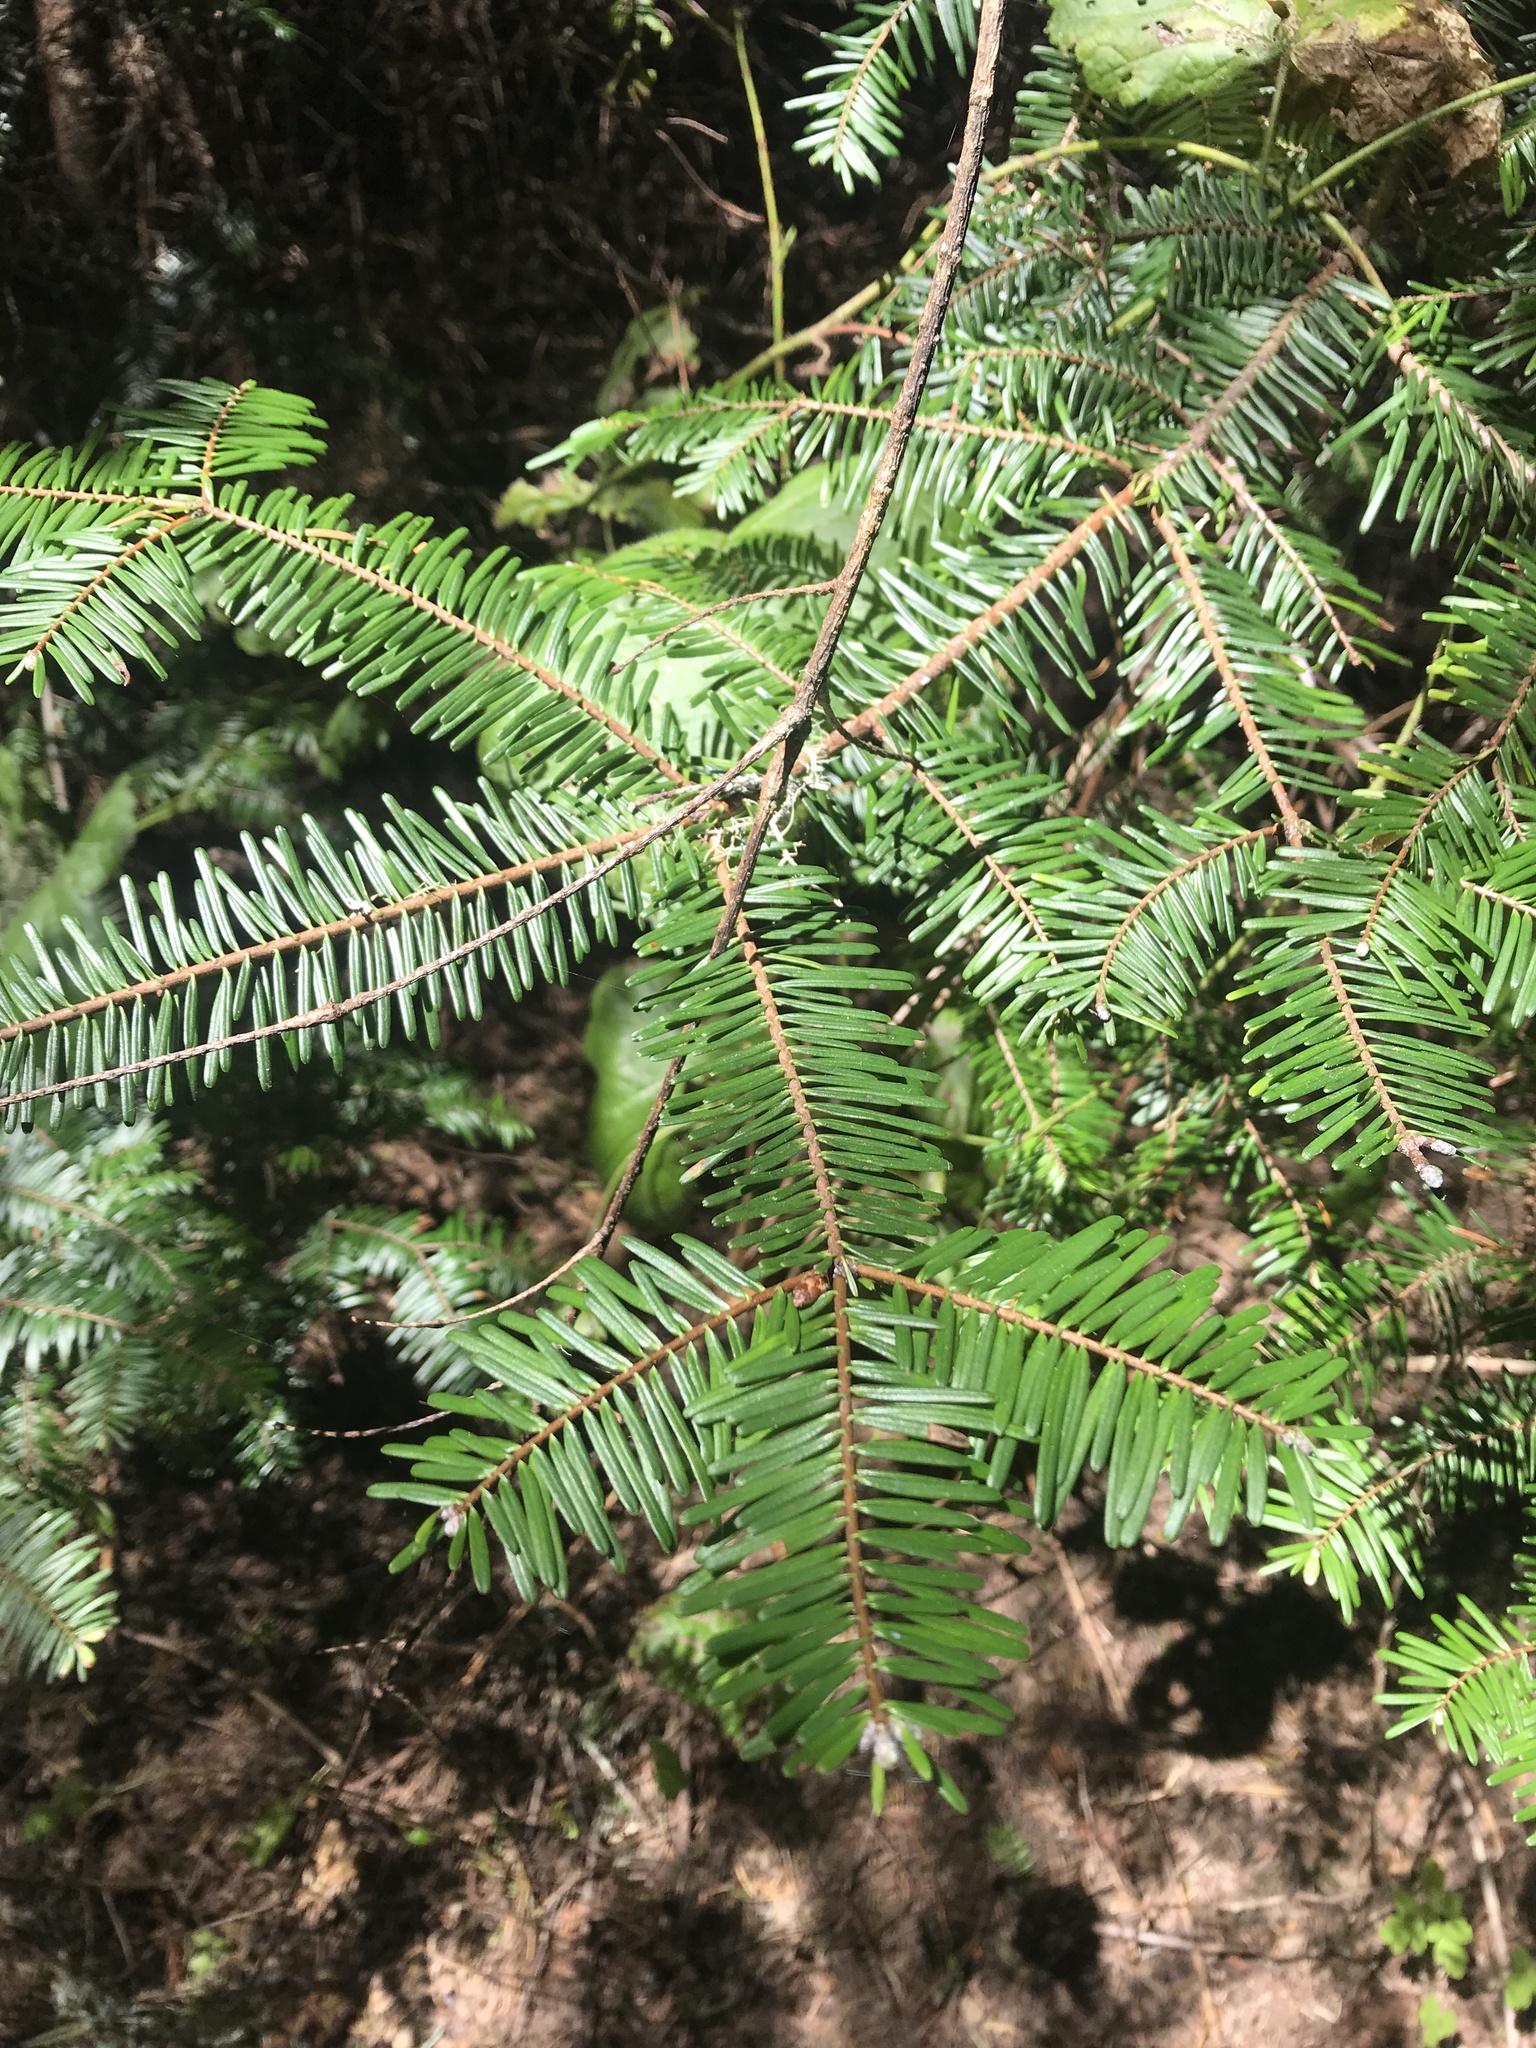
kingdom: Plantae
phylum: Tracheophyta
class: Pinopsida
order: Pinales
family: Pinaceae
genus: Abies
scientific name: Abies grandis
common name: Giant fir
